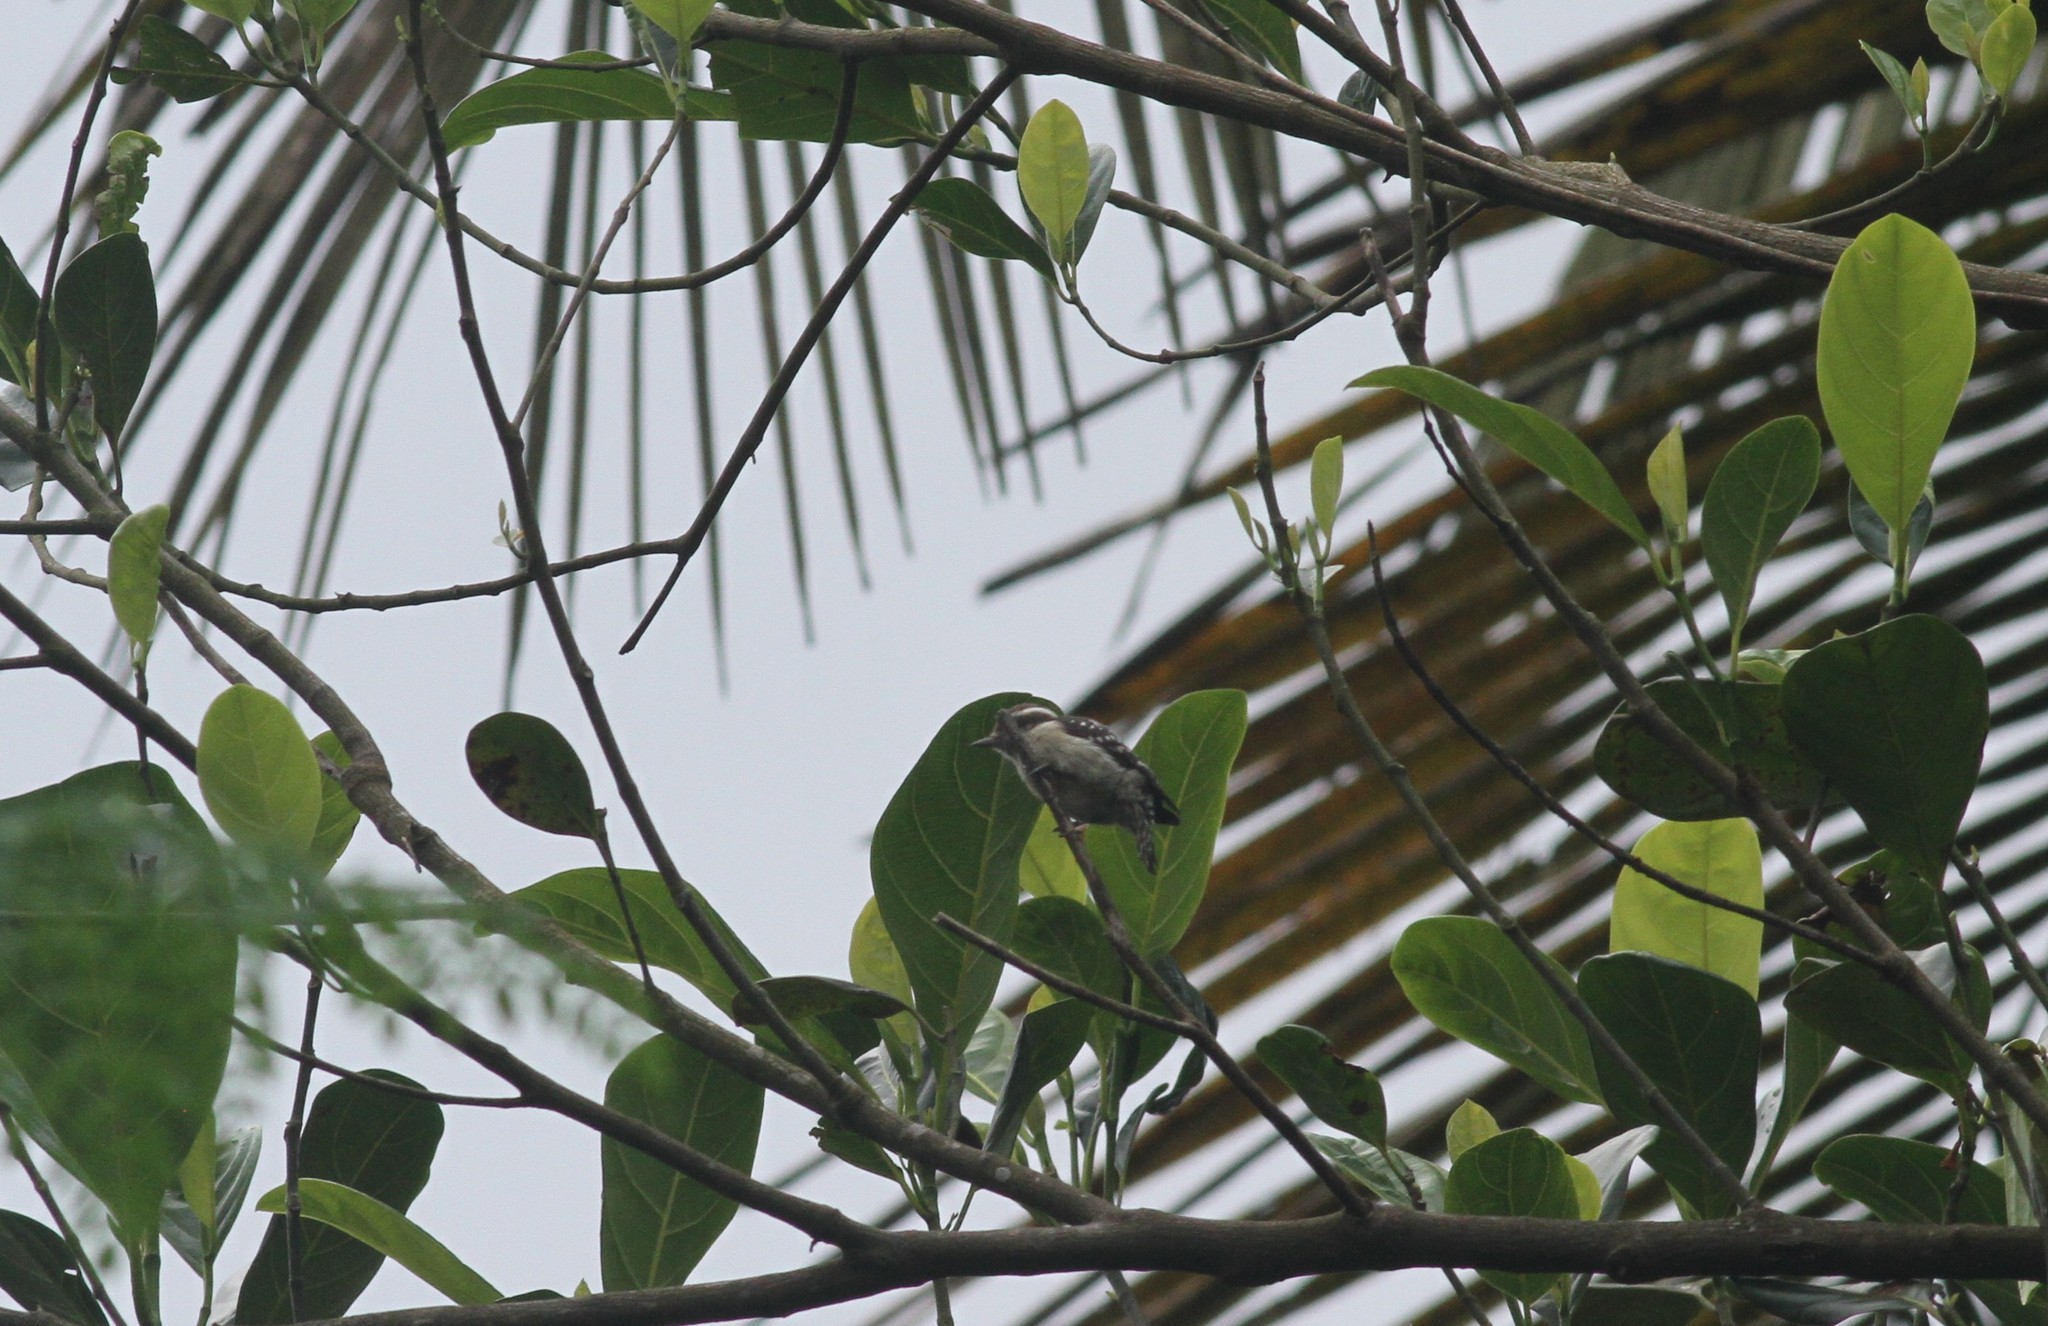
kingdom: Animalia
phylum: Chordata
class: Aves
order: Piciformes
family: Picidae
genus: Yungipicus
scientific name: Yungipicus nanus
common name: Brown-capped pygmy woodpecker
